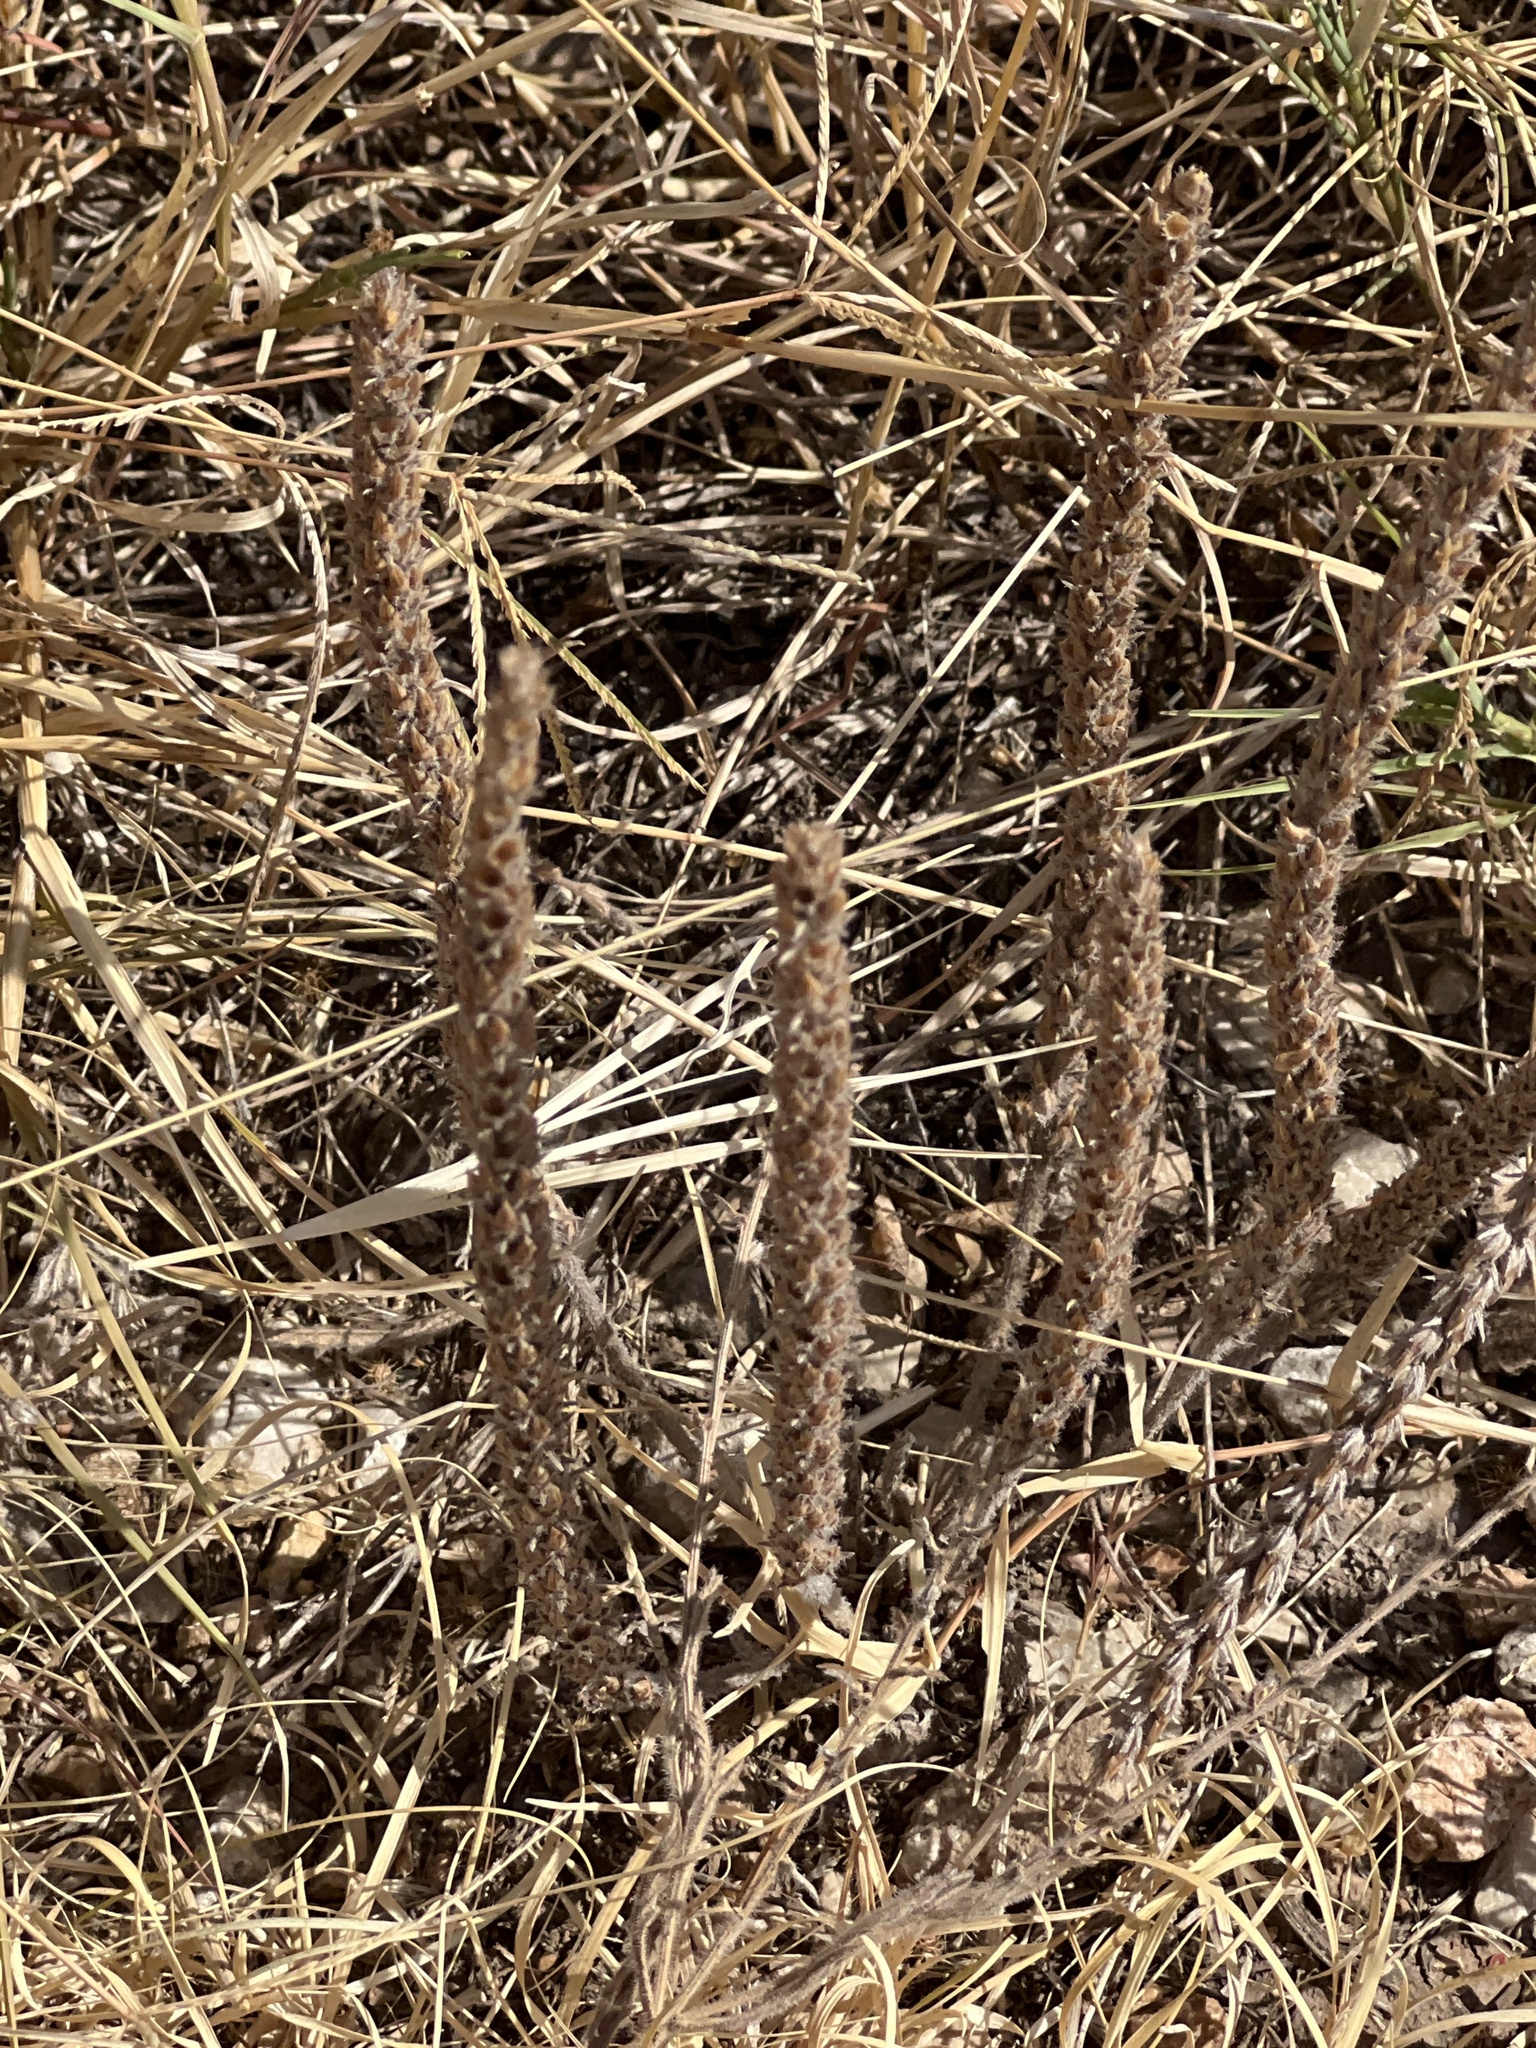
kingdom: Plantae
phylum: Tracheophyta
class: Magnoliopsida
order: Lamiales
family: Plantaginaceae
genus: Plantago
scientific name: Plantago rhodosperma
